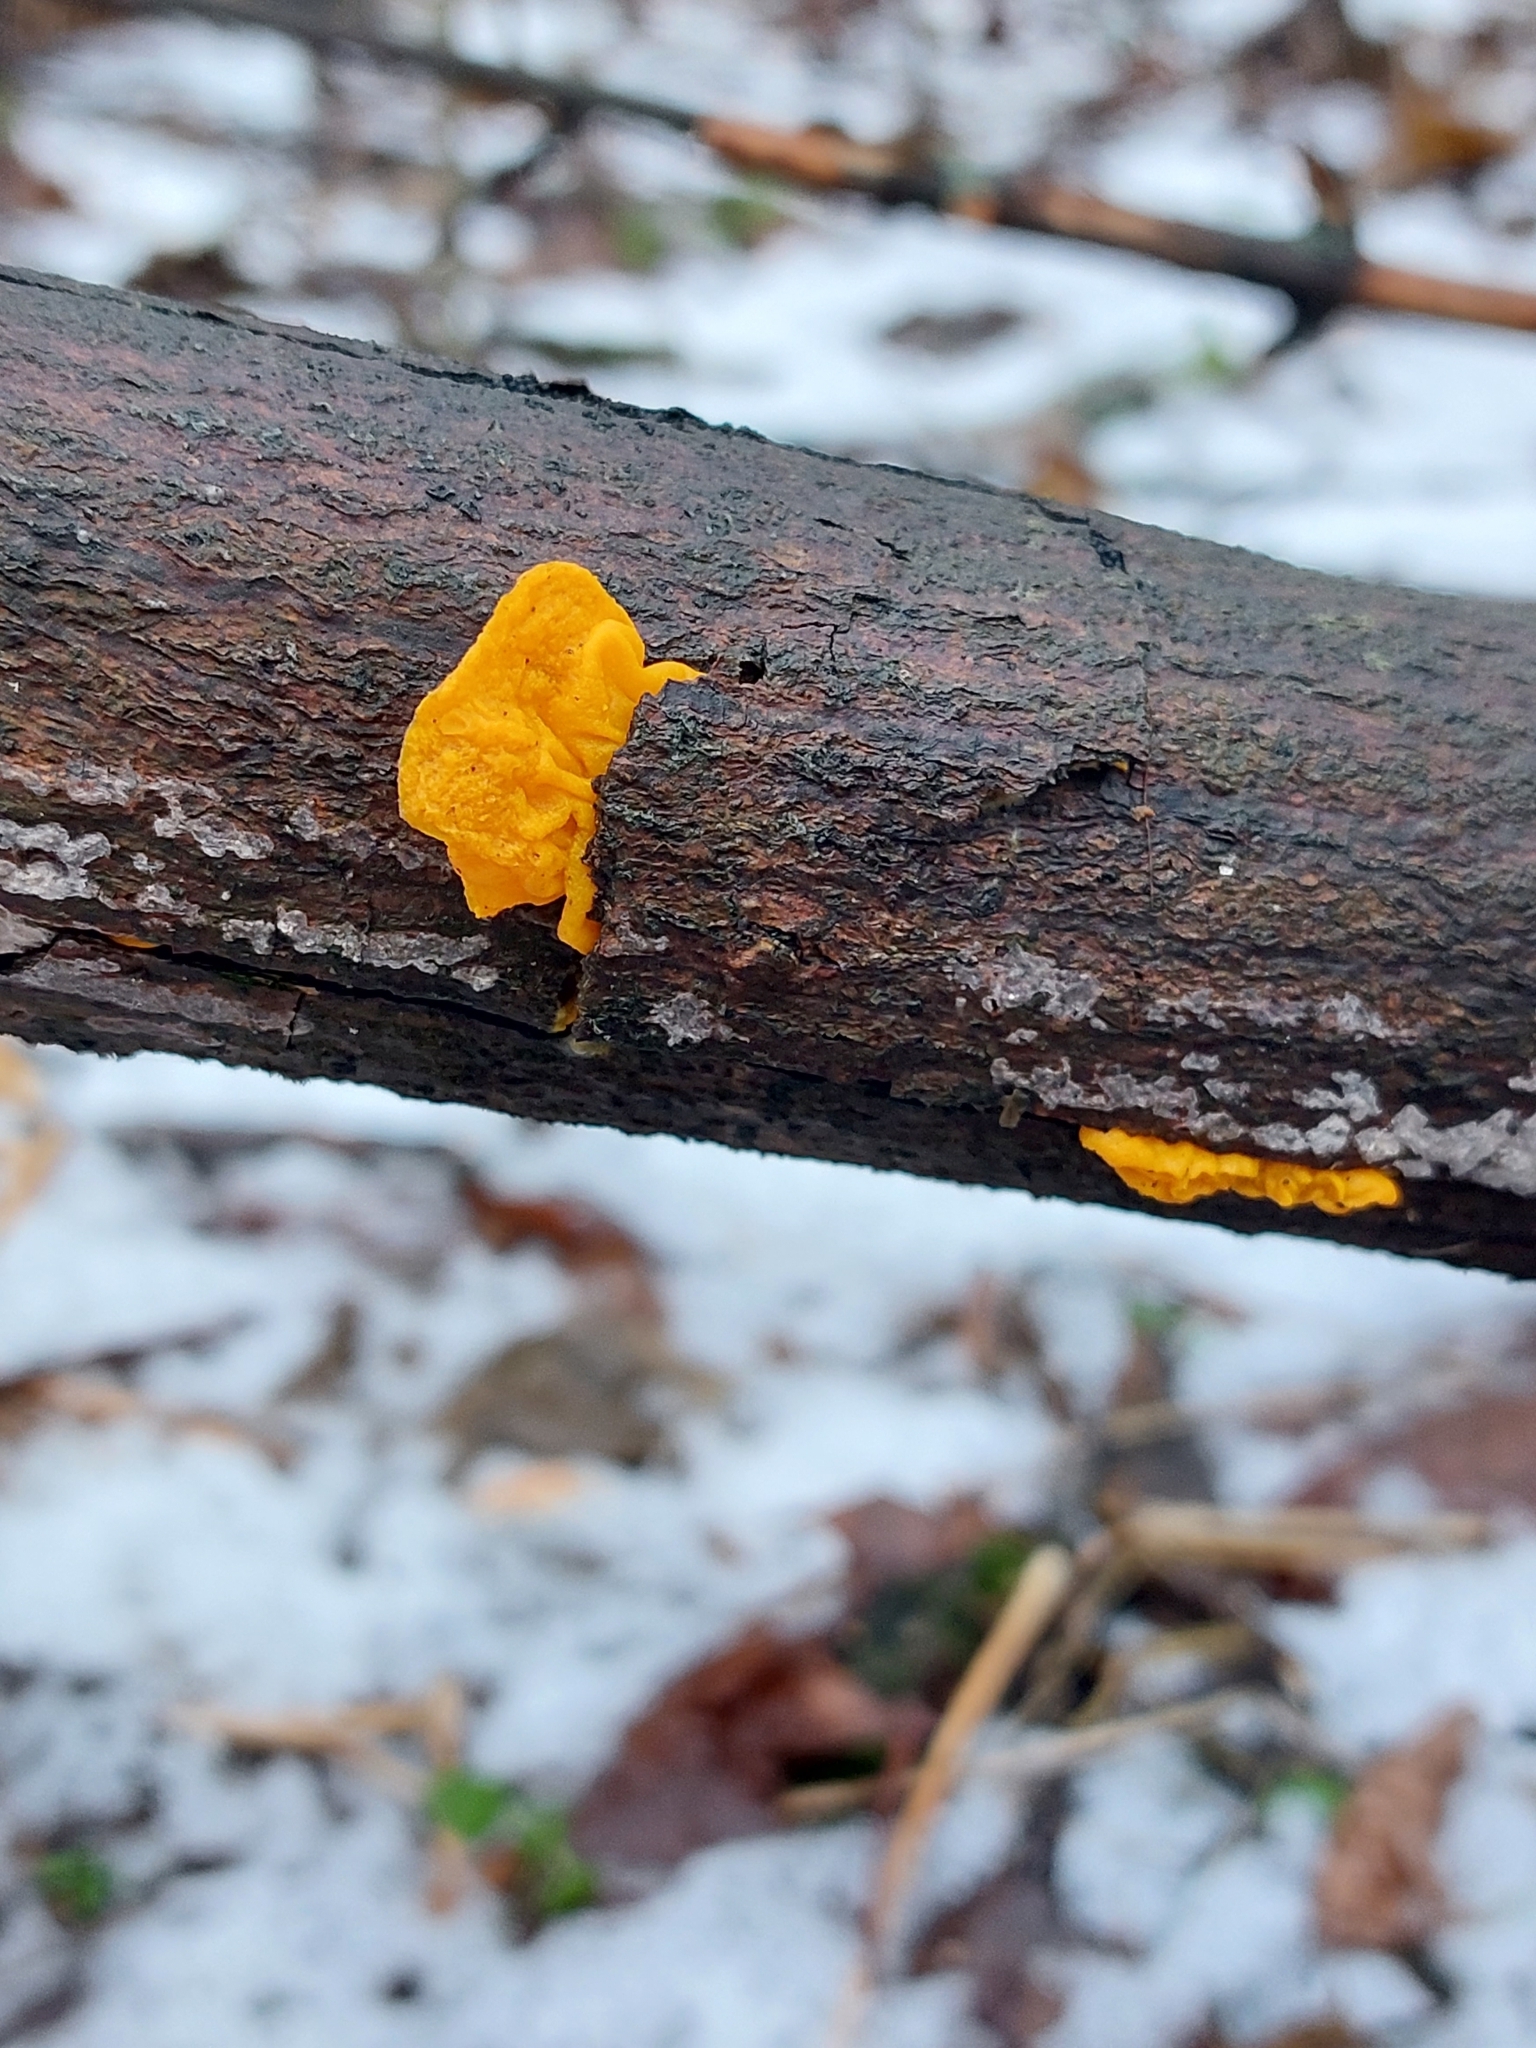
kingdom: Fungi
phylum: Basidiomycota
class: Tremellomycetes
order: Tremellales
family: Tremellaceae
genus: Tremella
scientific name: Tremella mesenterica
